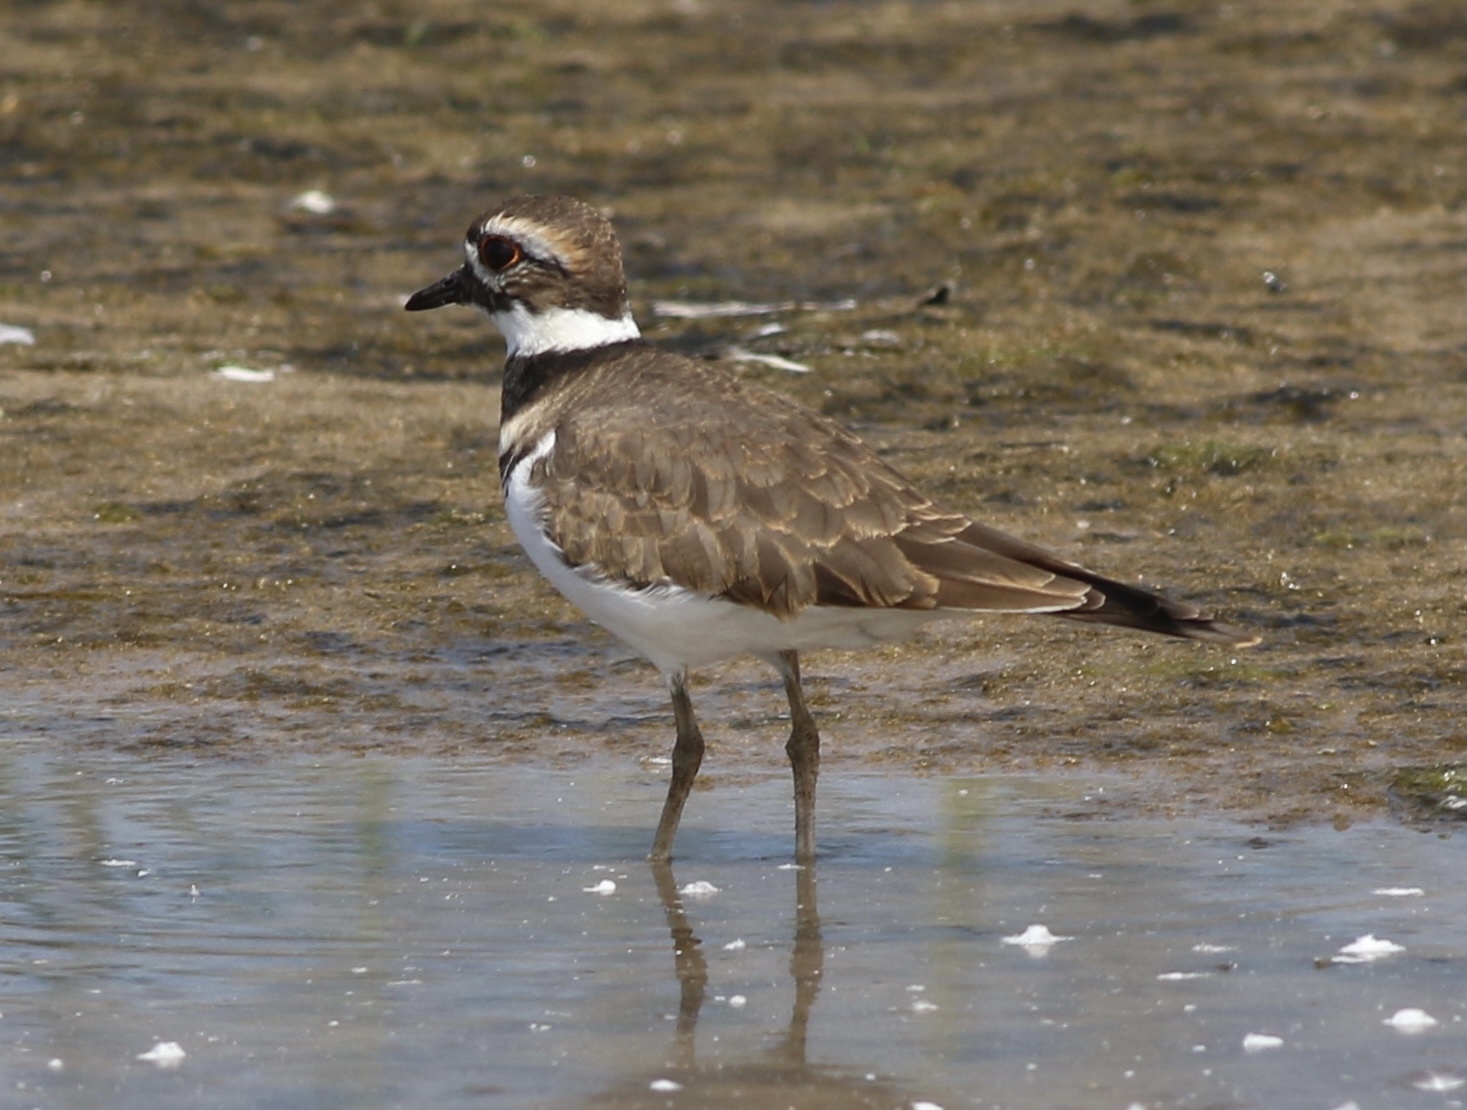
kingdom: Animalia
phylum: Chordata
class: Aves
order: Charadriiformes
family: Charadriidae
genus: Charadrius
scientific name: Charadrius vociferus
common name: Killdeer
